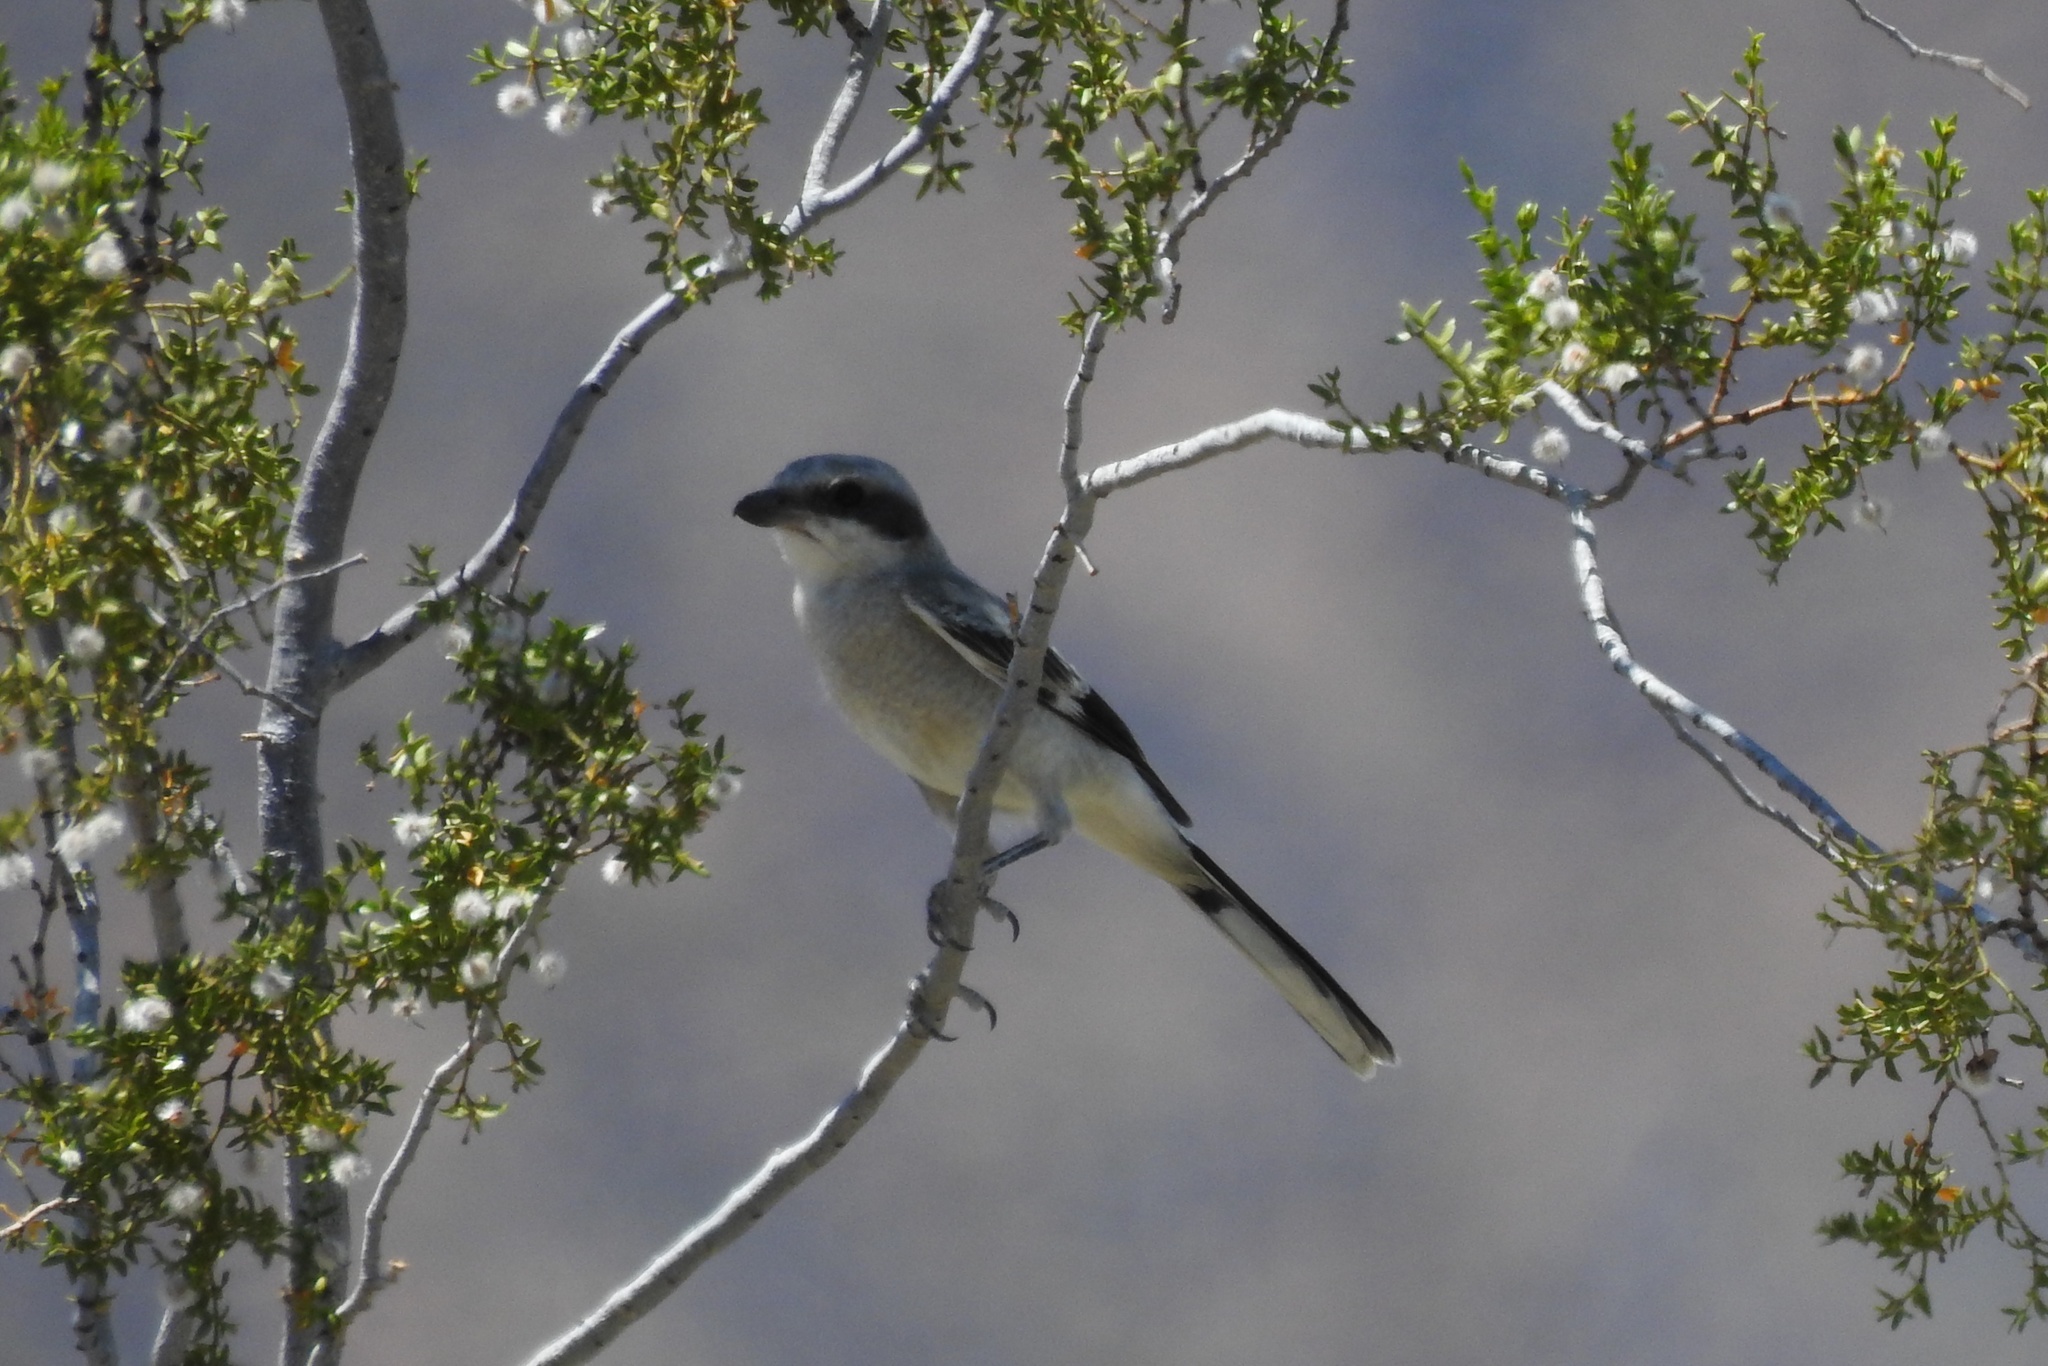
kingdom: Animalia
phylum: Chordata
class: Aves
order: Passeriformes
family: Laniidae
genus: Lanius
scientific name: Lanius ludovicianus
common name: Loggerhead shrike
